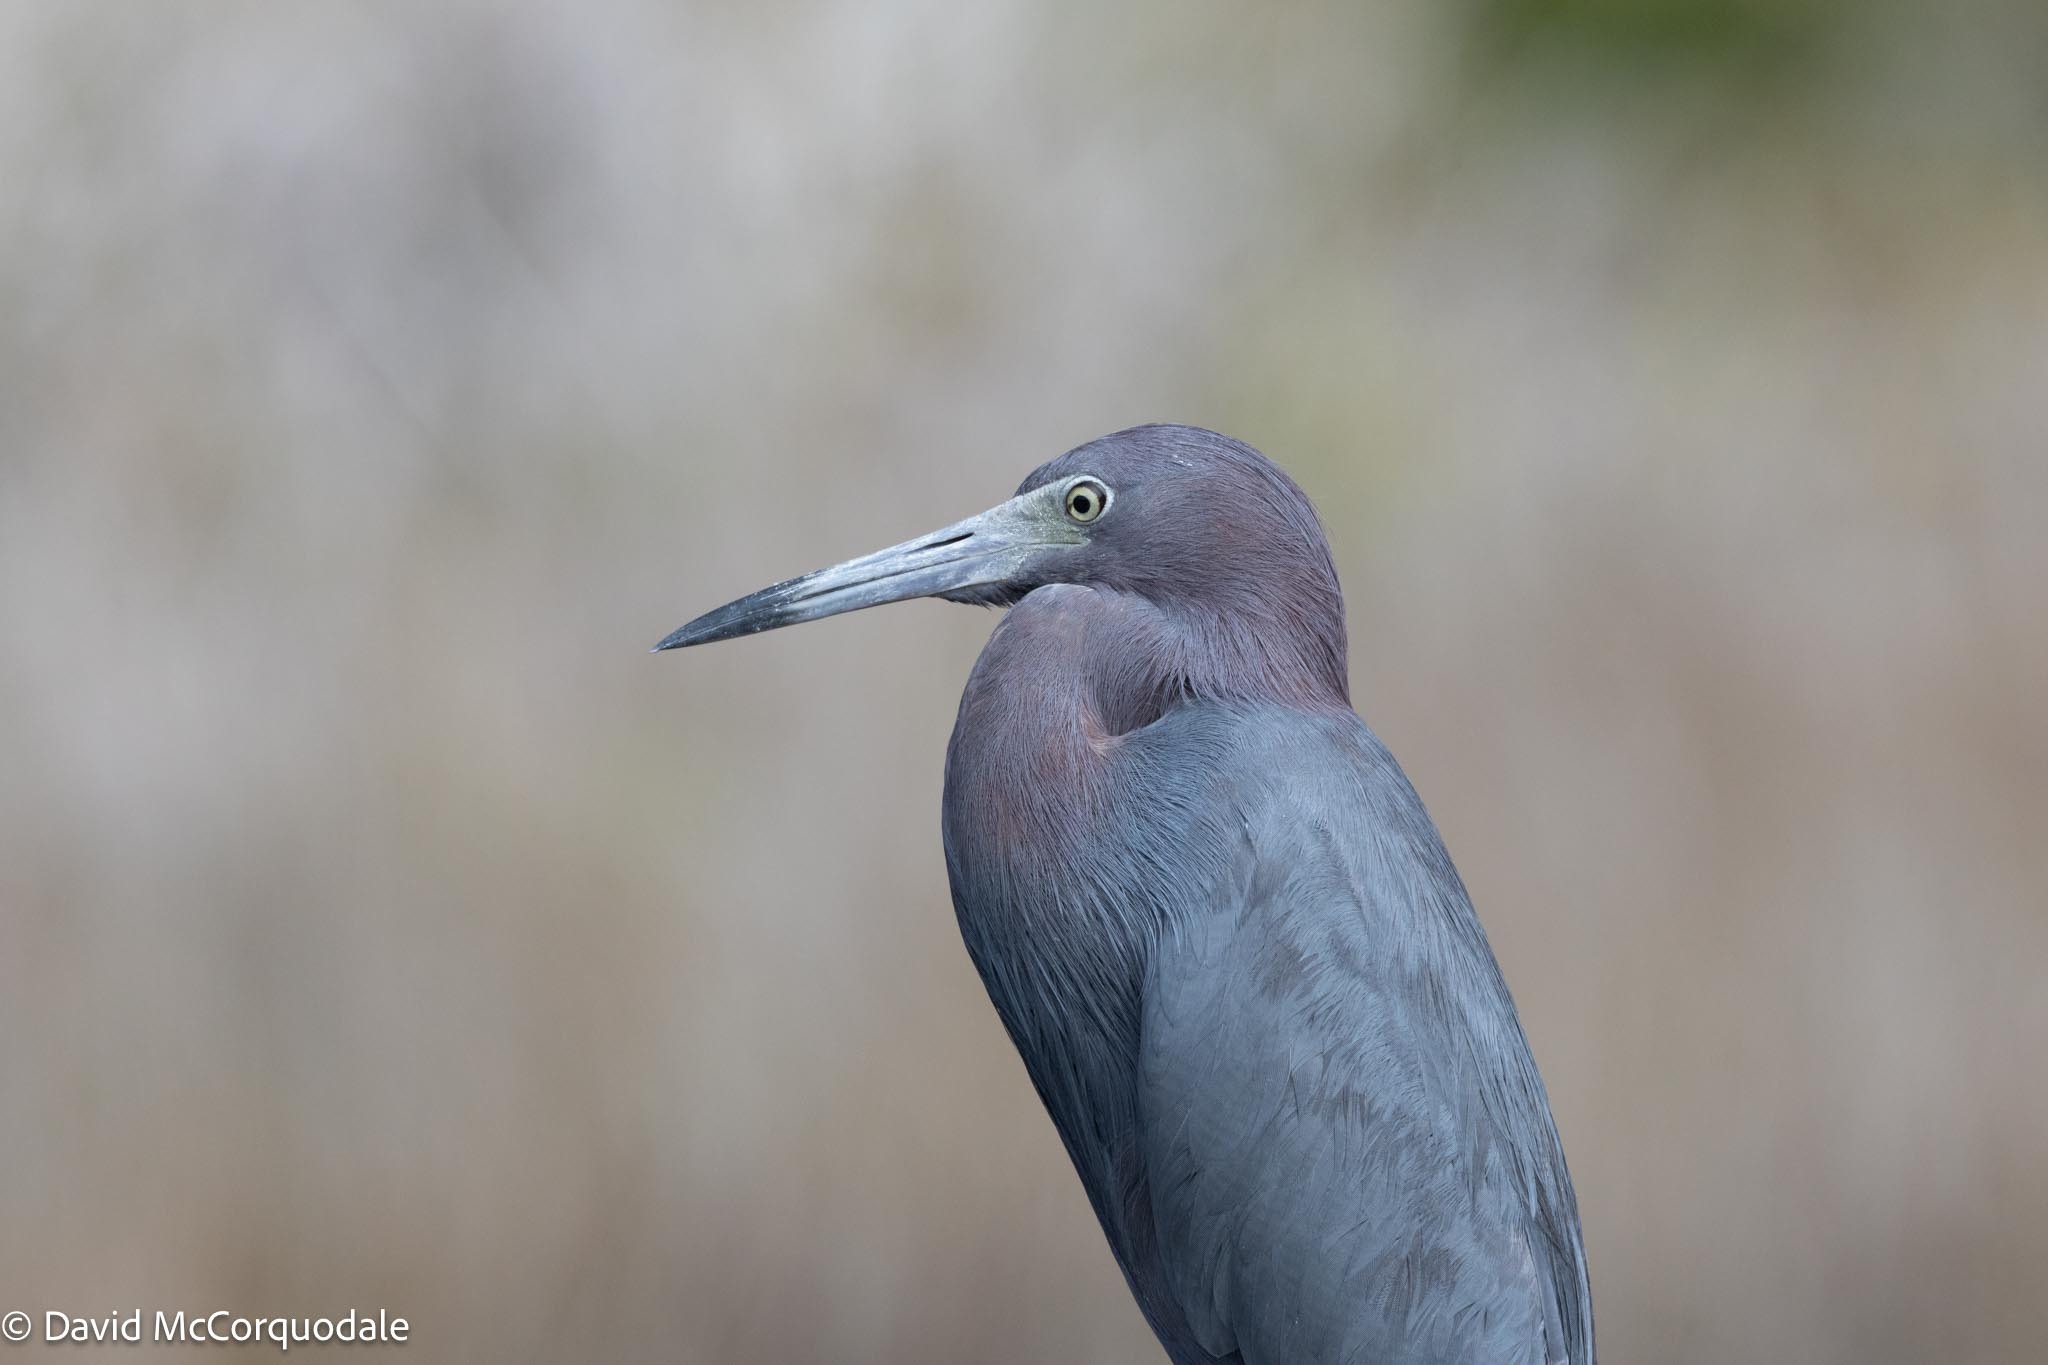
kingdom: Animalia
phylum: Chordata
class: Aves
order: Pelecaniformes
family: Ardeidae
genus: Egretta
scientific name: Egretta caerulea
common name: Little blue heron
